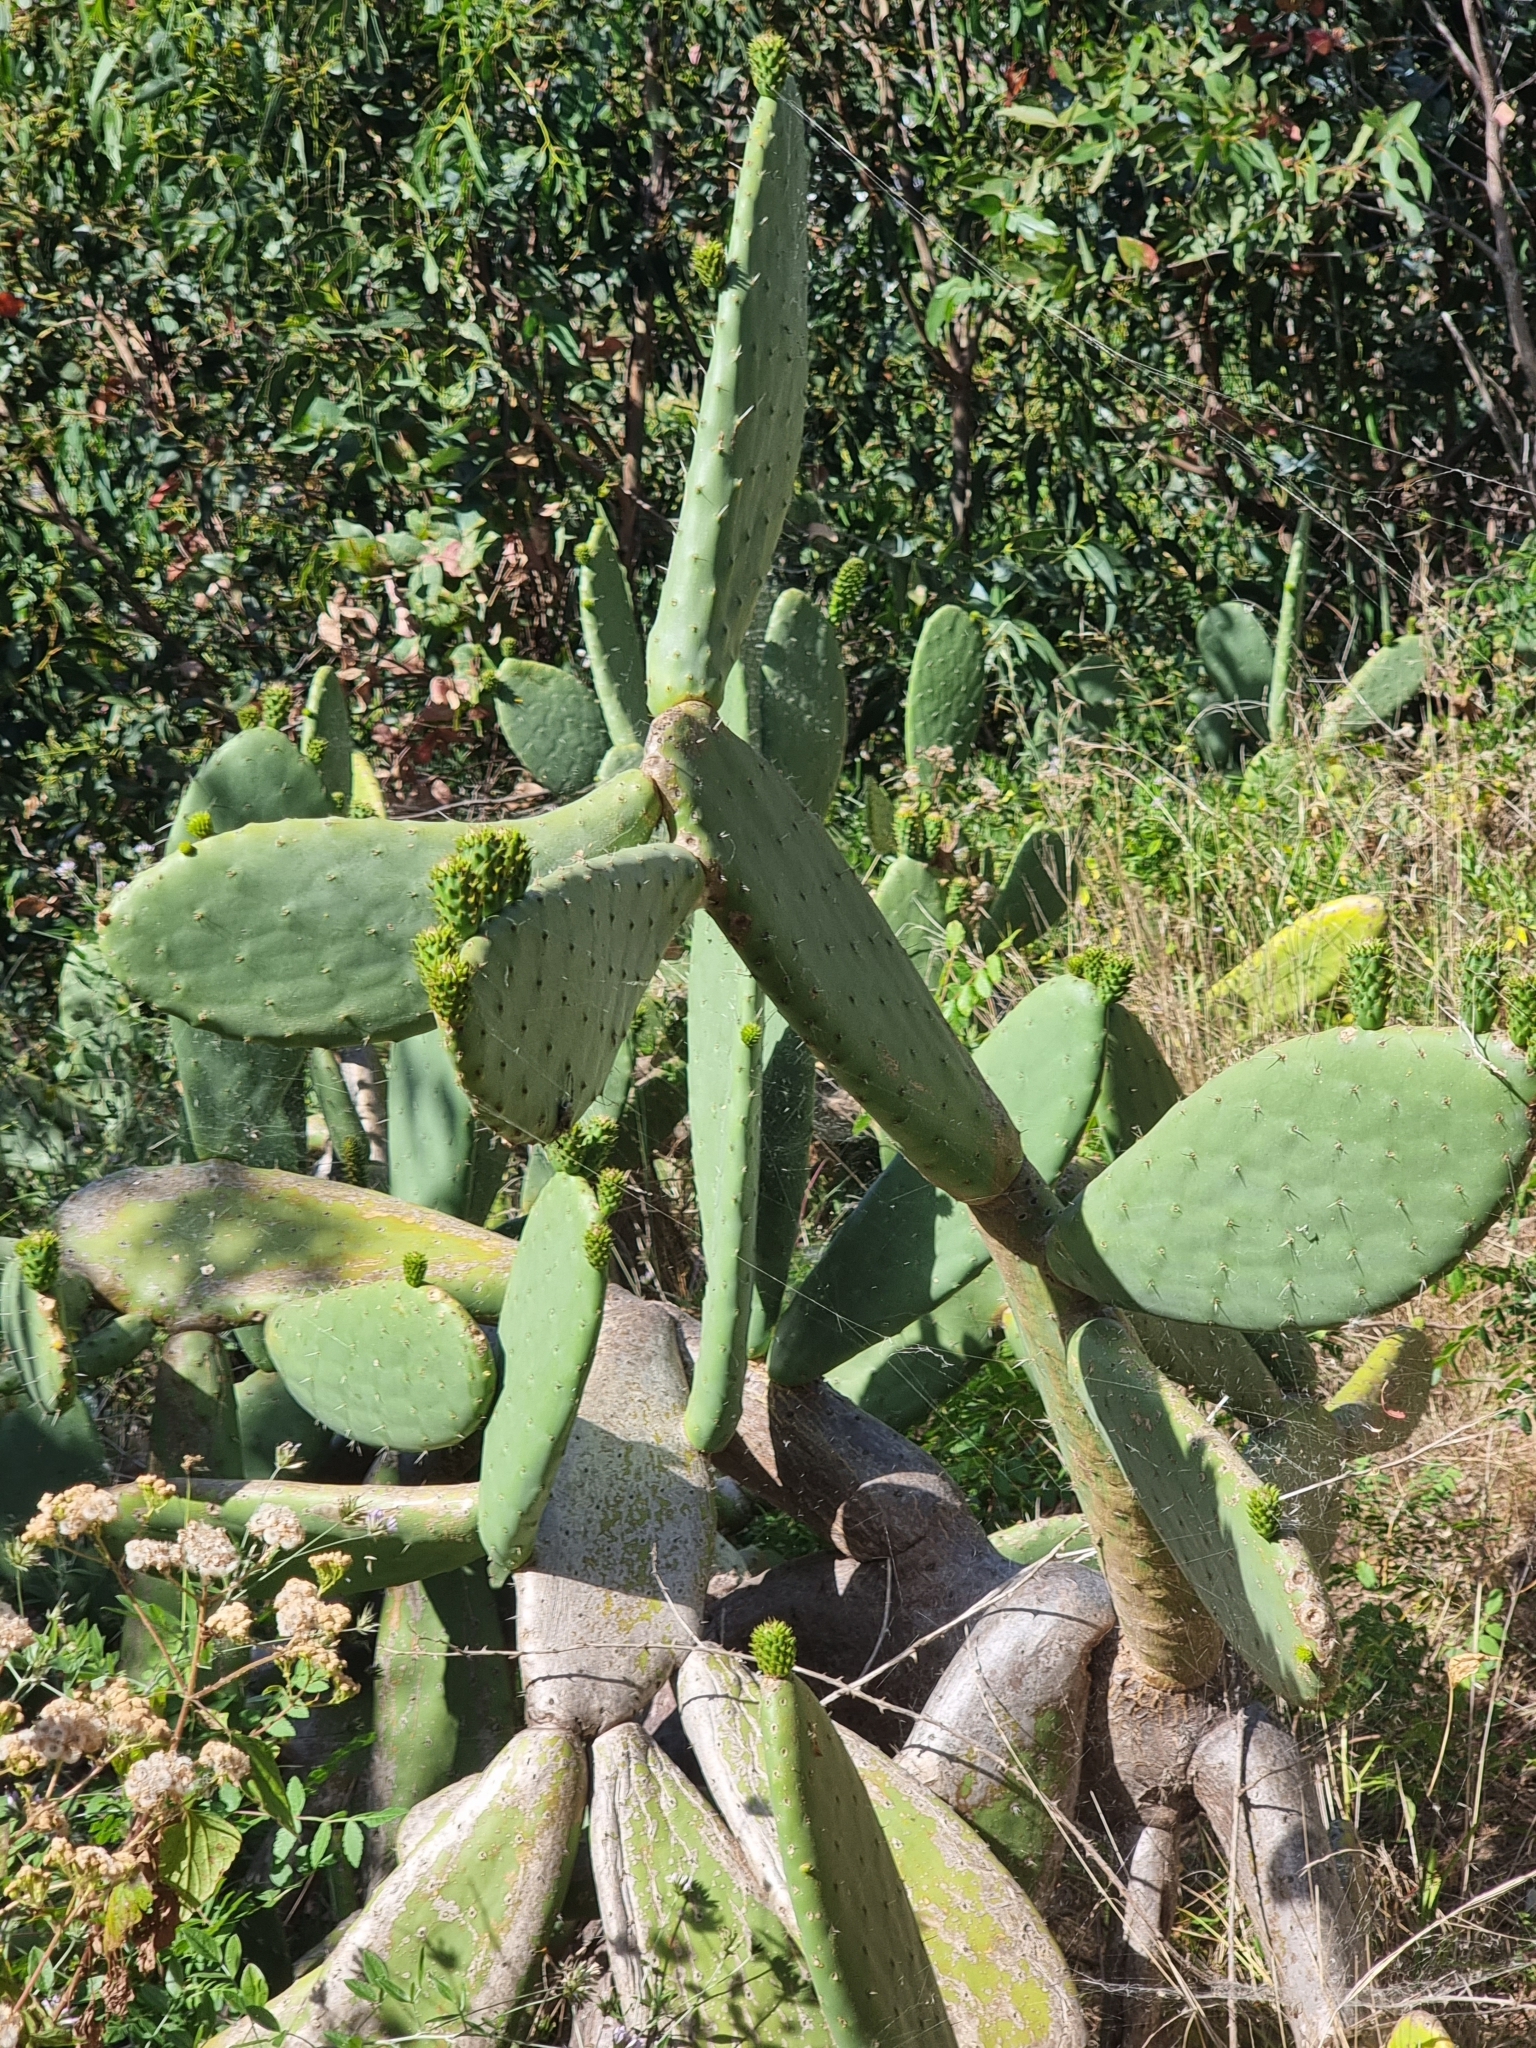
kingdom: Plantae
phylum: Tracheophyta
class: Magnoliopsida
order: Caryophyllales
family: Cactaceae
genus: Opuntia
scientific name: Opuntia ficus-indica
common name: Barbary fig
